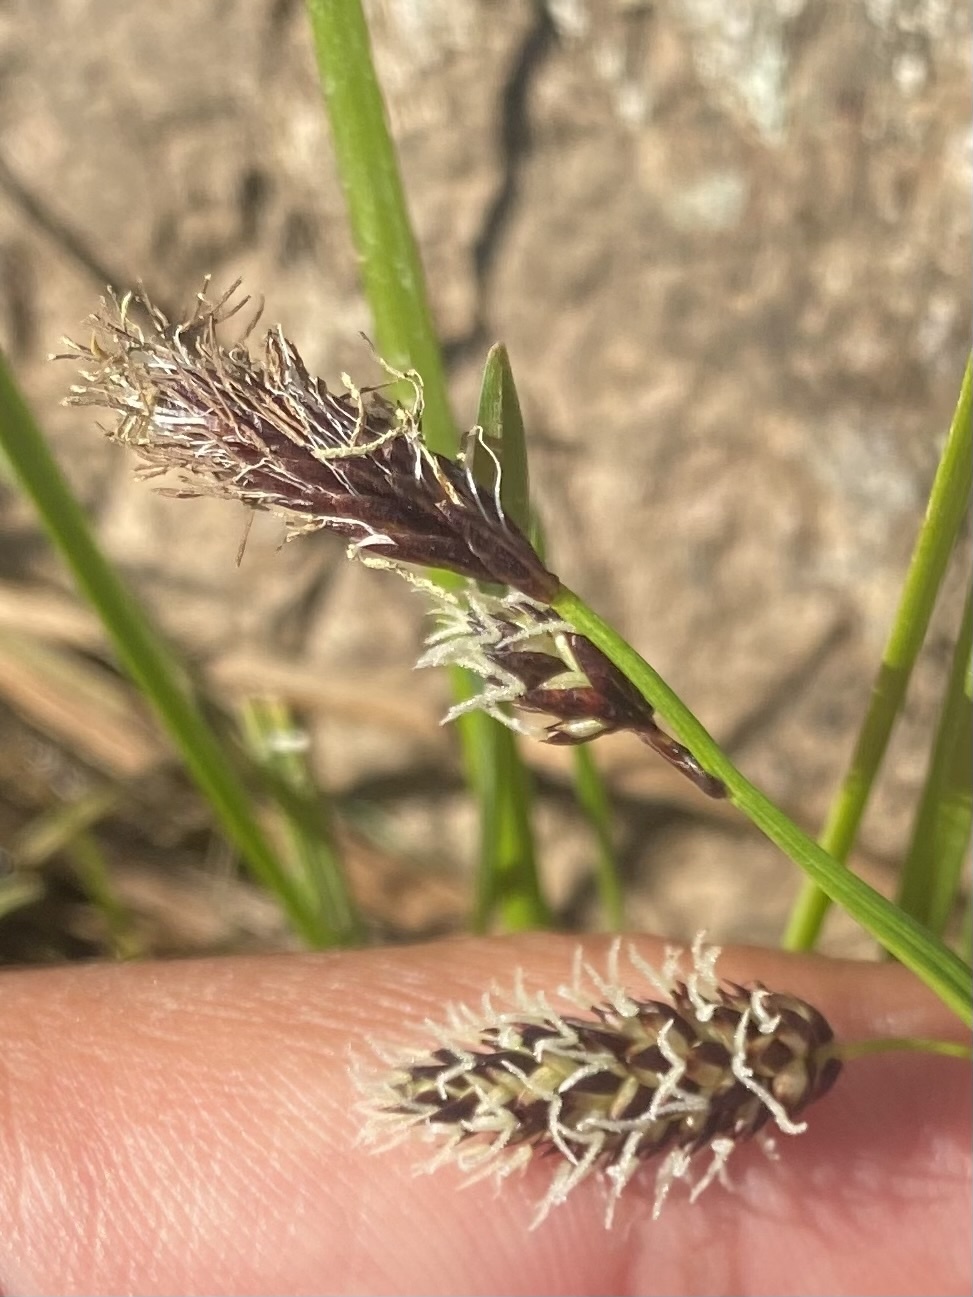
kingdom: Plantae
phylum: Tracheophyta
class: Liliopsida
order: Poales
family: Cyperaceae
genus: Carex
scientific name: Carex saxatilis
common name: Russet sedge
